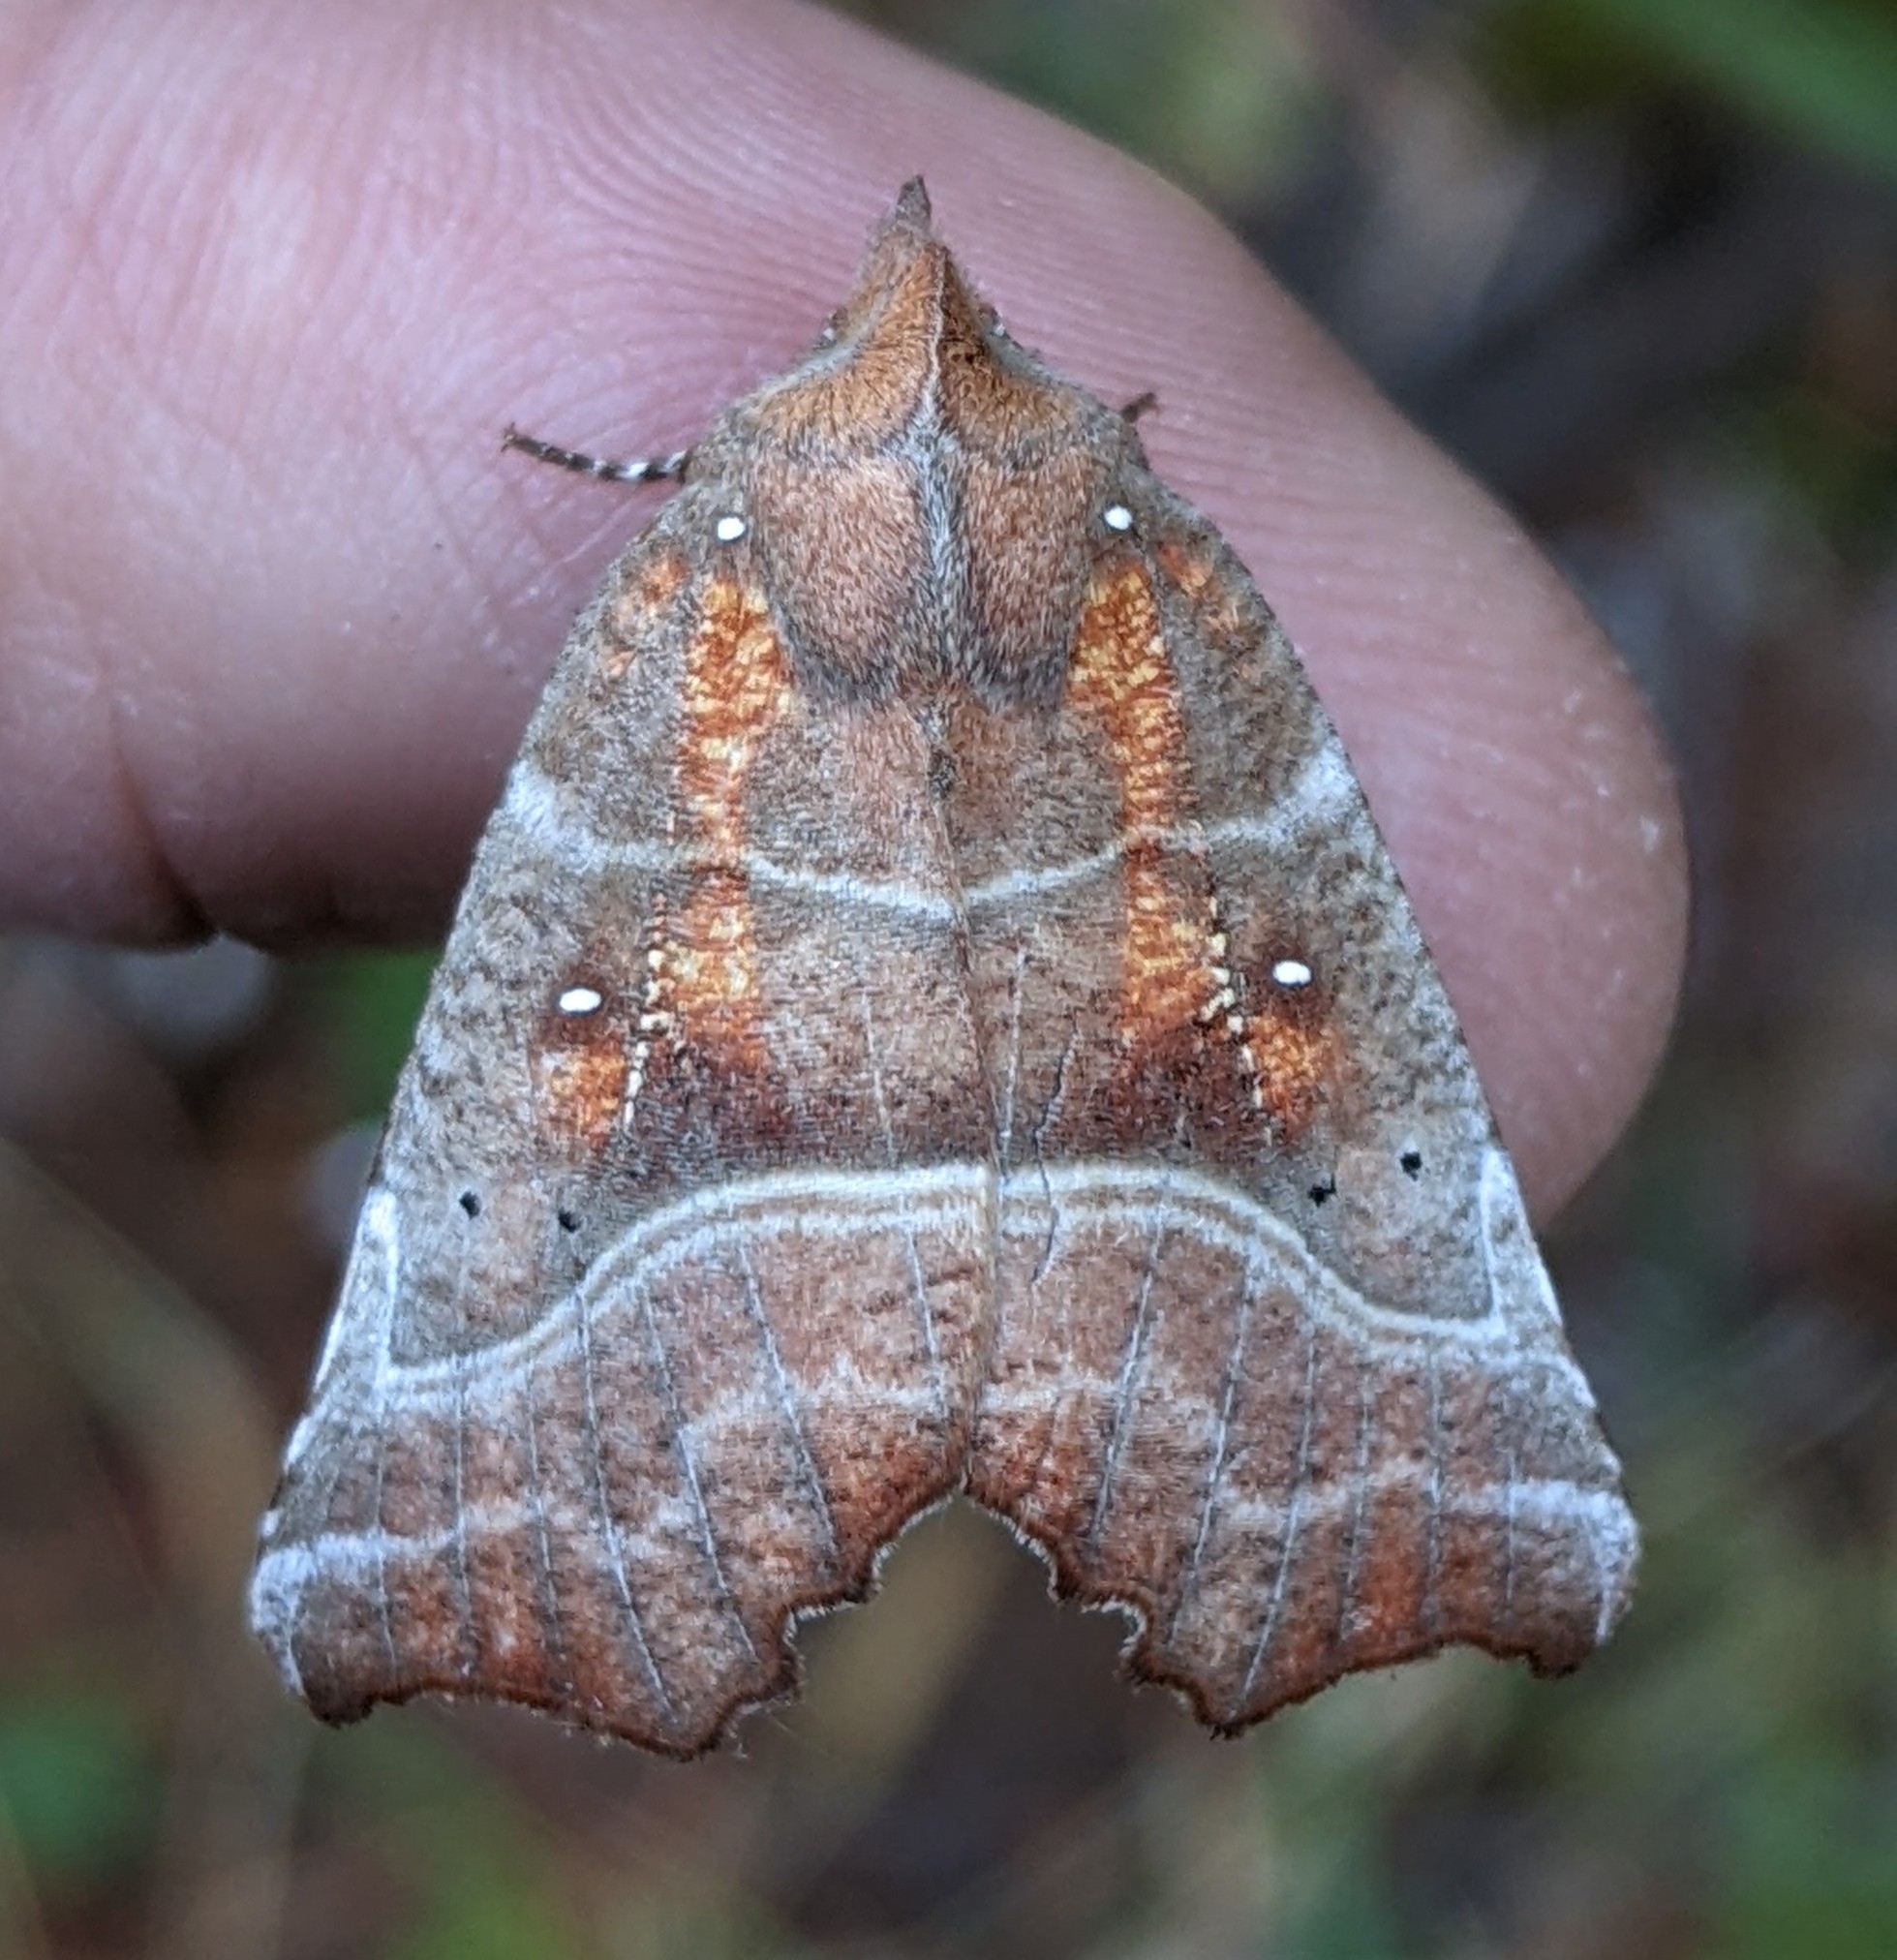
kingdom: Animalia
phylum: Arthropoda
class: Insecta
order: Lepidoptera
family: Erebidae
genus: Scoliopteryx
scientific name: Scoliopteryx libatrix
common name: Herald
